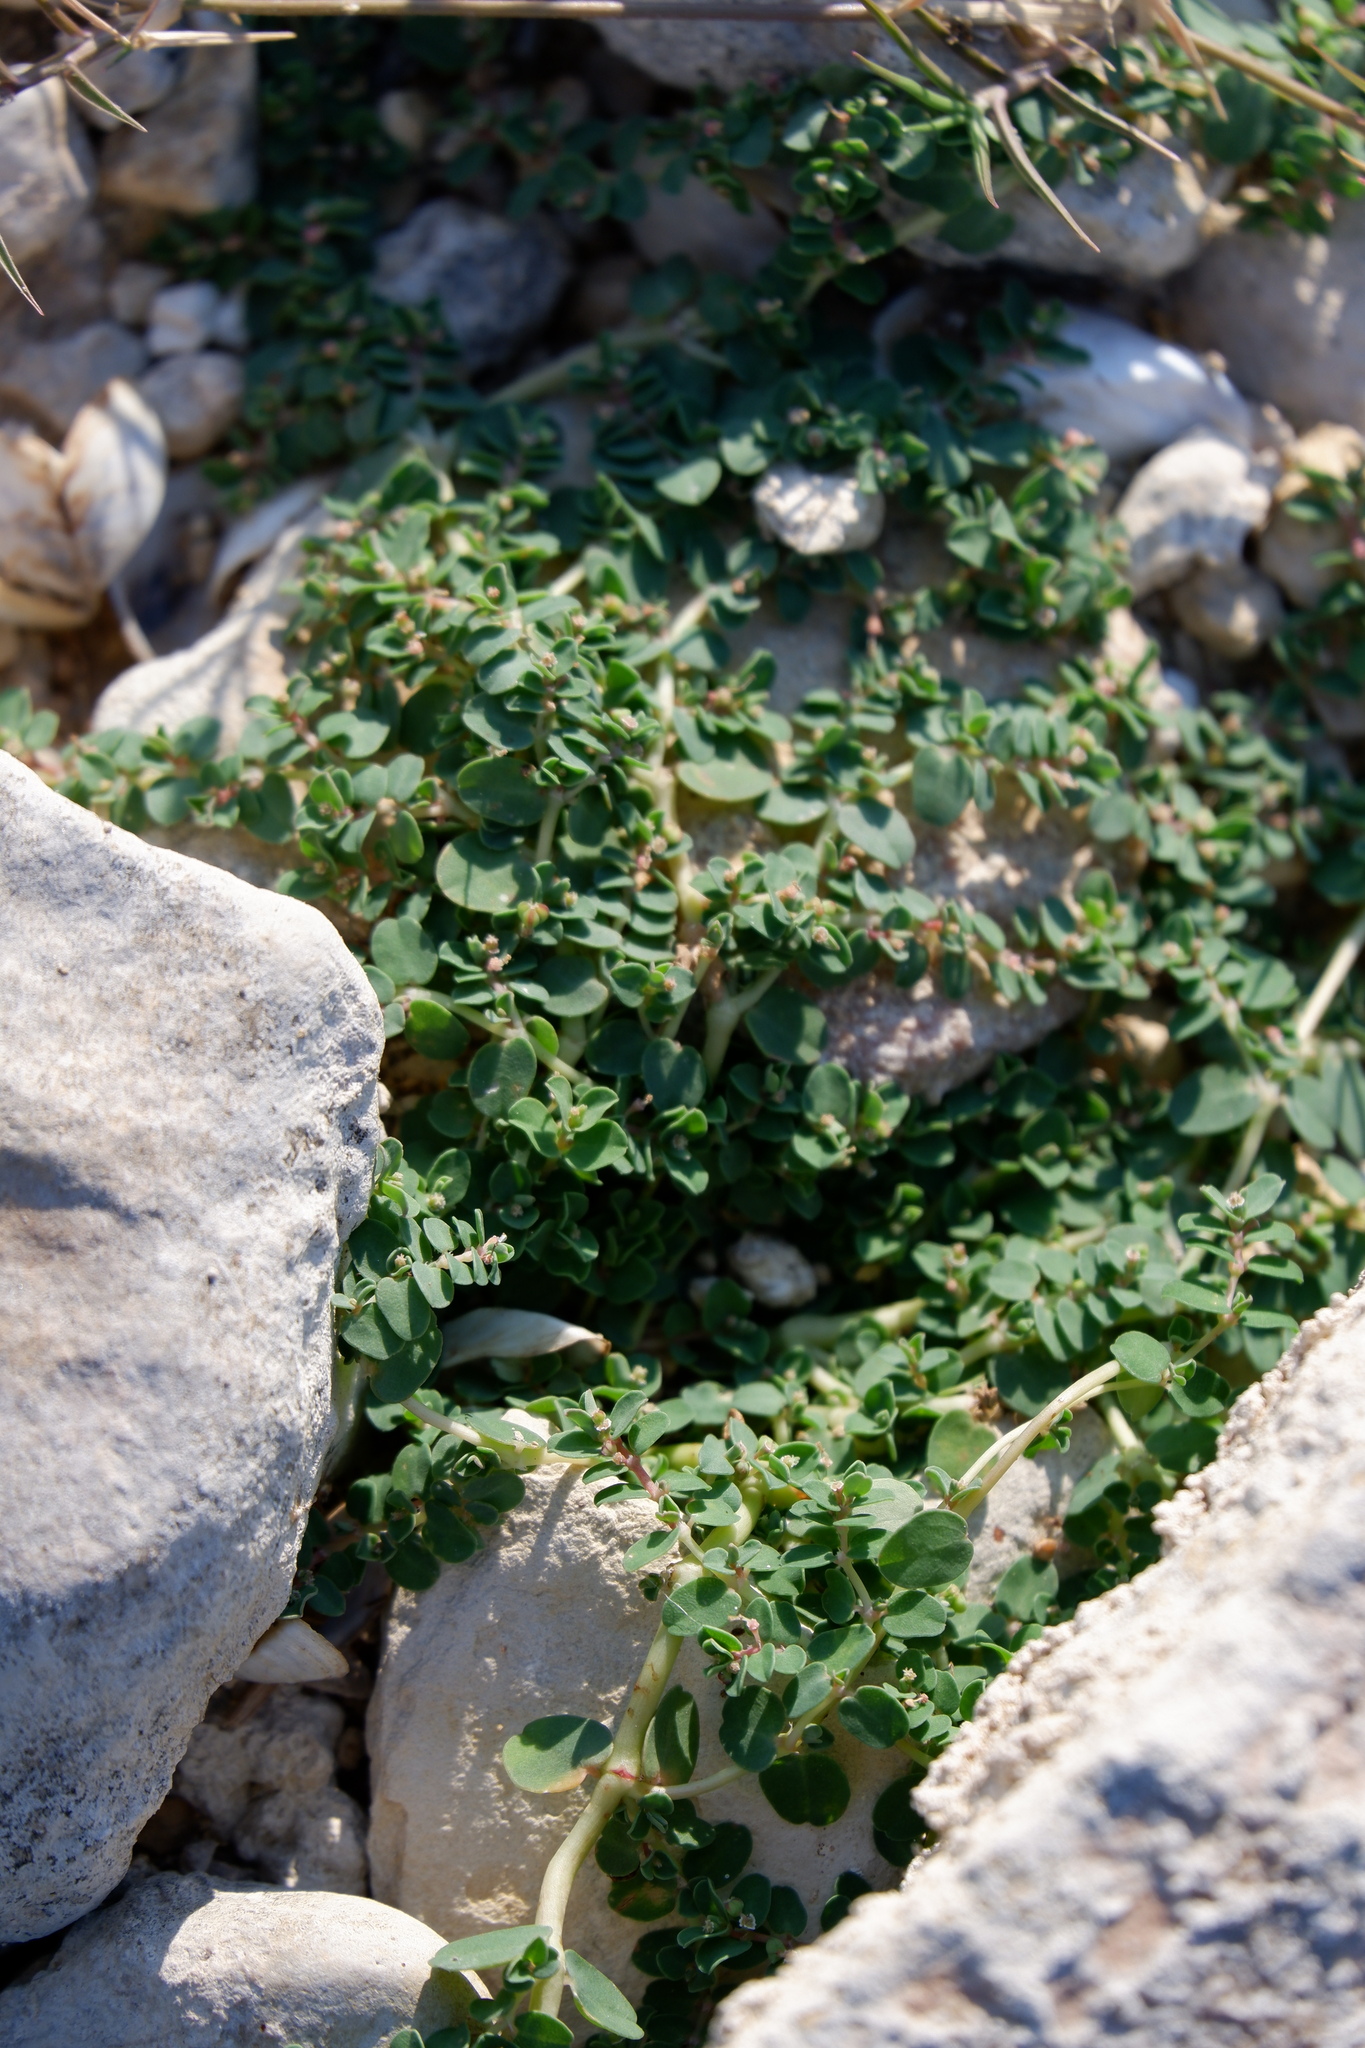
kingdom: Plantae
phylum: Tracheophyta
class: Magnoliopsida
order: Malpighiales
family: Euphorbiaceae
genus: Euphorbia
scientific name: Euphorbia serpens
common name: Matted sandmat
